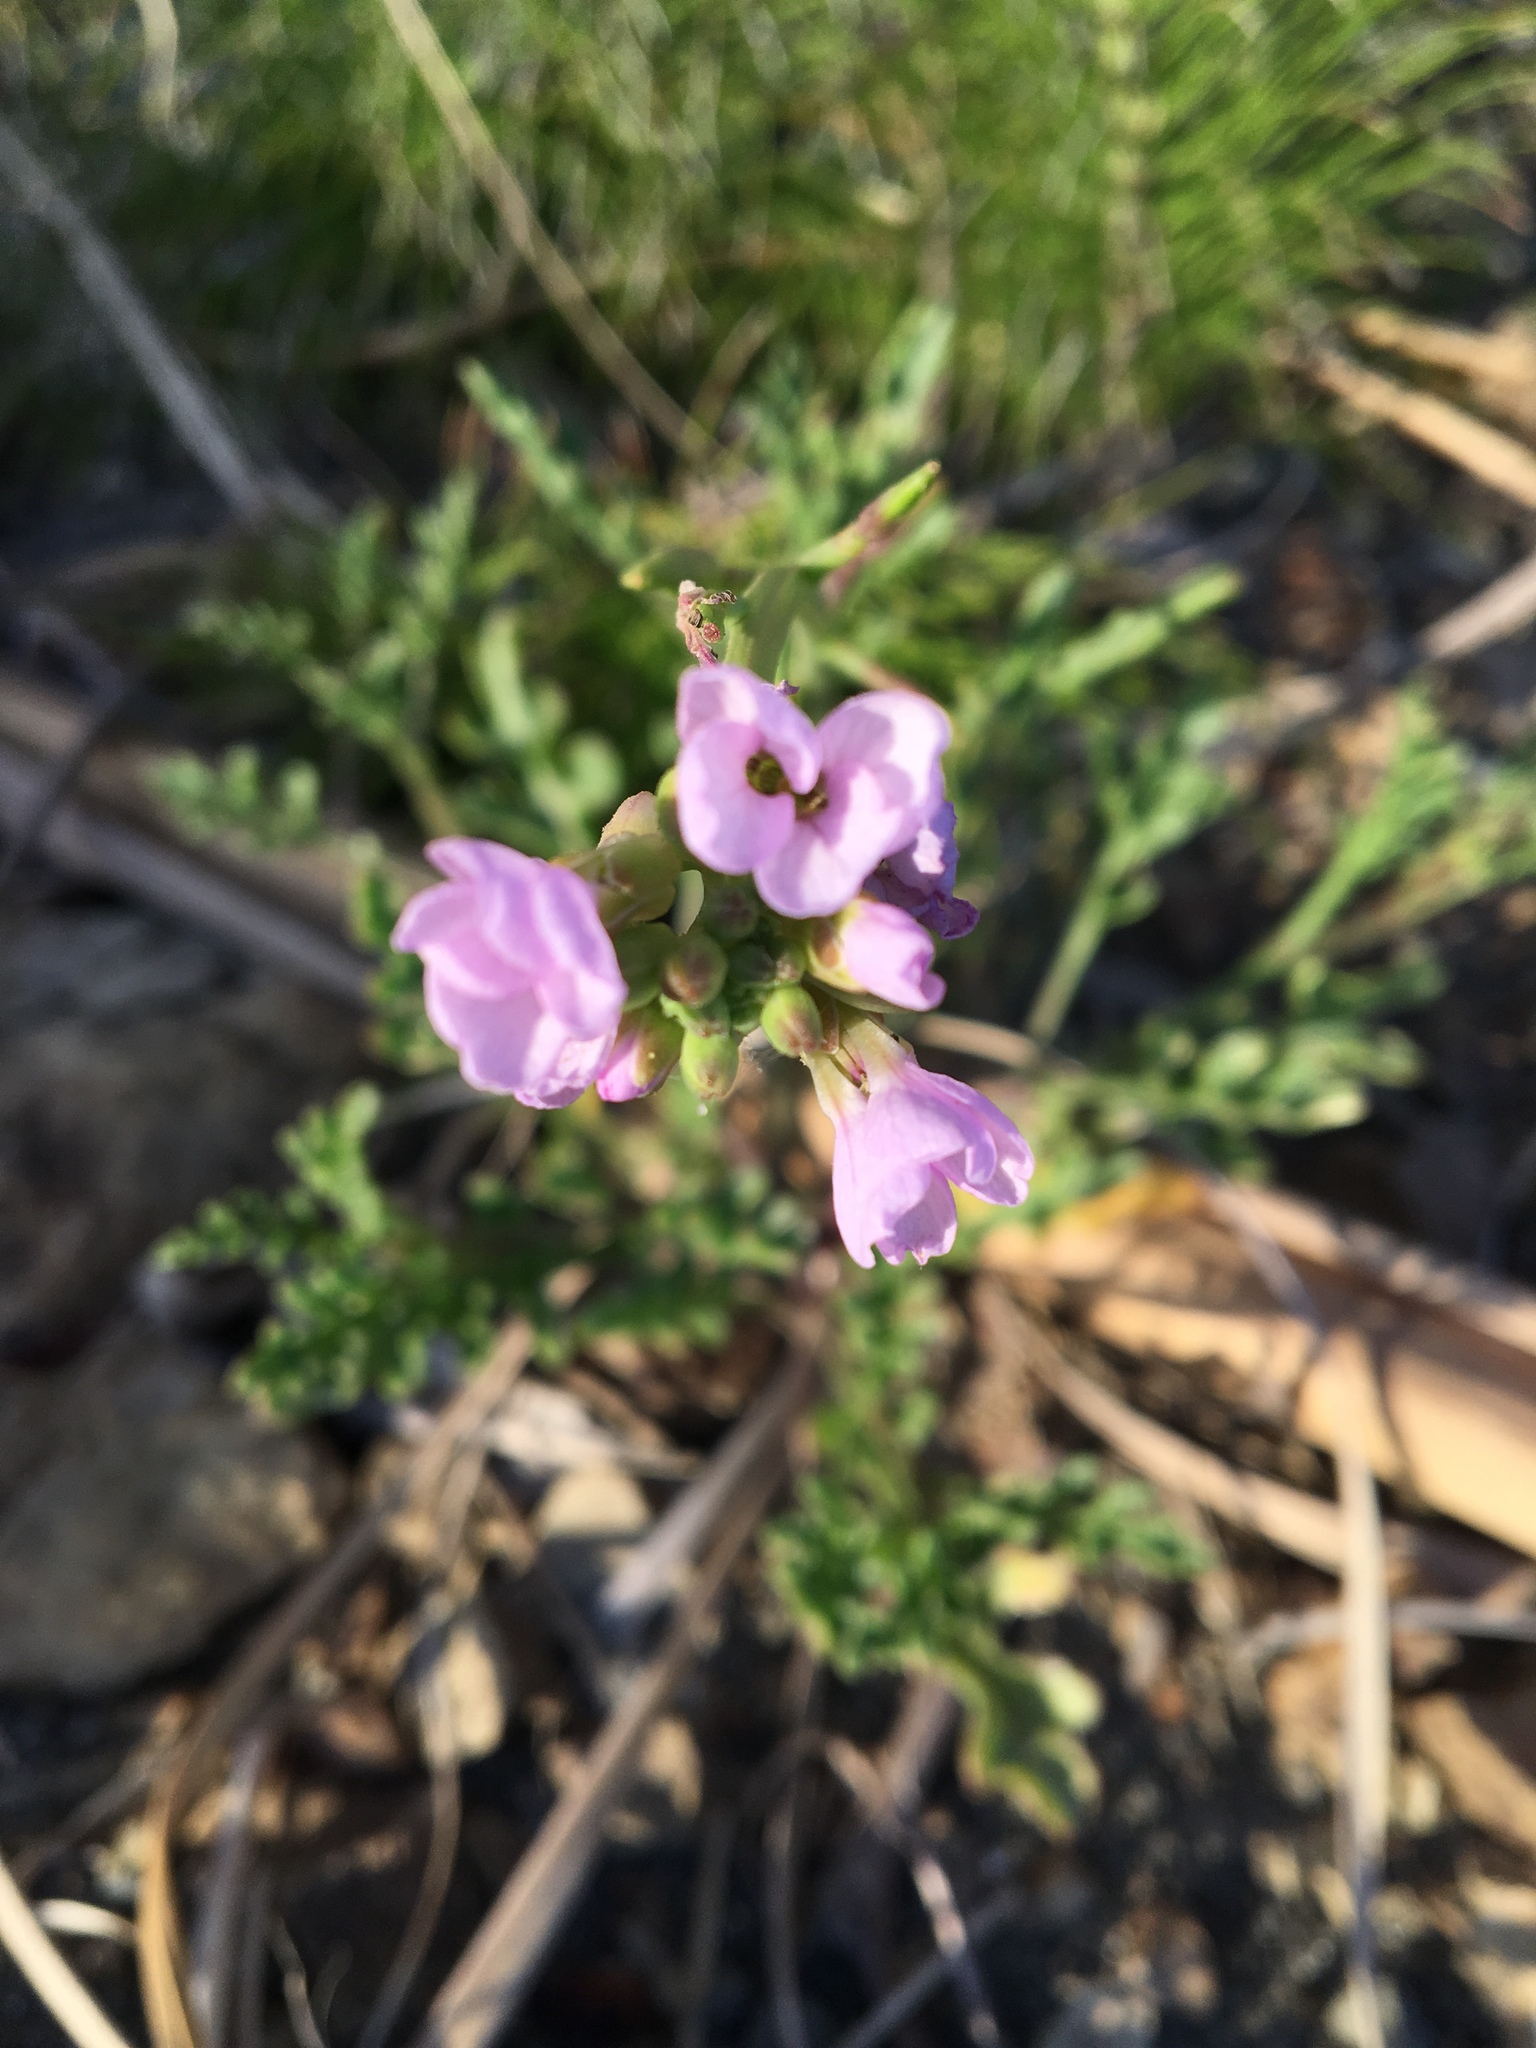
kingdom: Plantae
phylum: Tracheophyta
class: Magnoliopsida
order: Brassicales
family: Brassicaceae
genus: Cakile
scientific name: Cakile maritima
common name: Sea rocket
